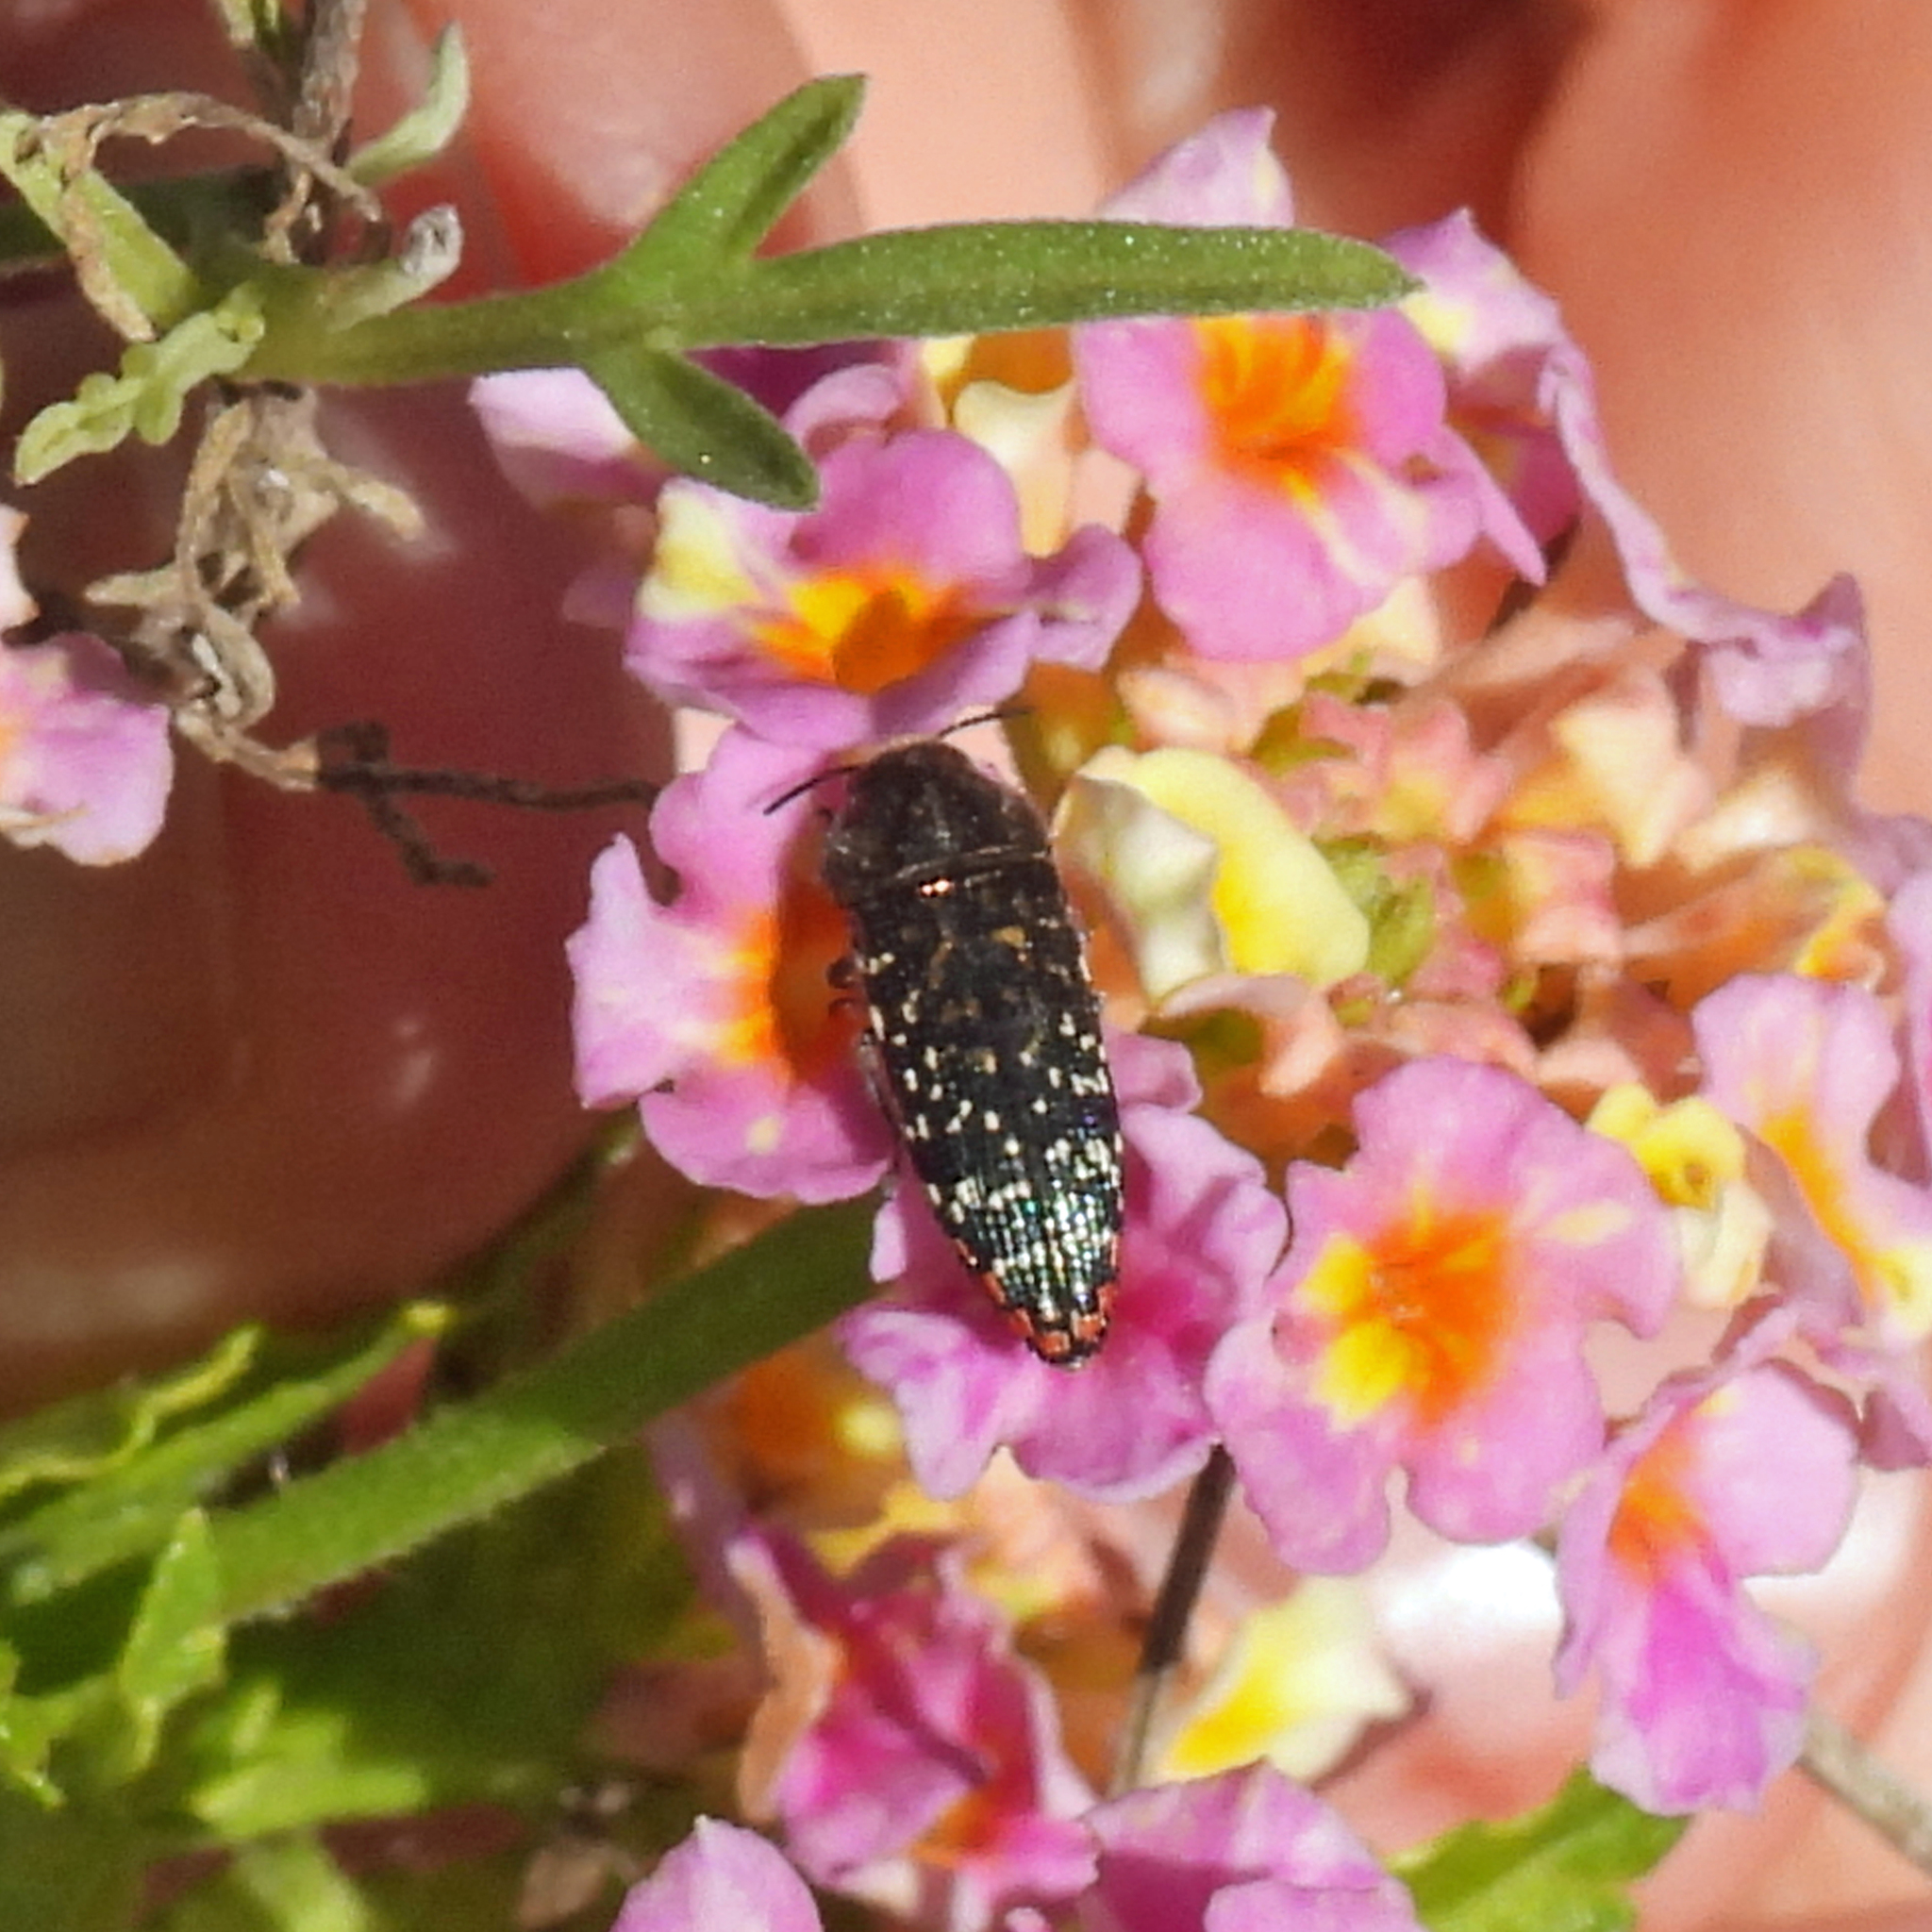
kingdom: Animalia
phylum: Arthropoda
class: Insecta
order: Coleoptera
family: Buprestidae
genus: Acmaeodera
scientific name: Acmaeodera haemorrhoa
